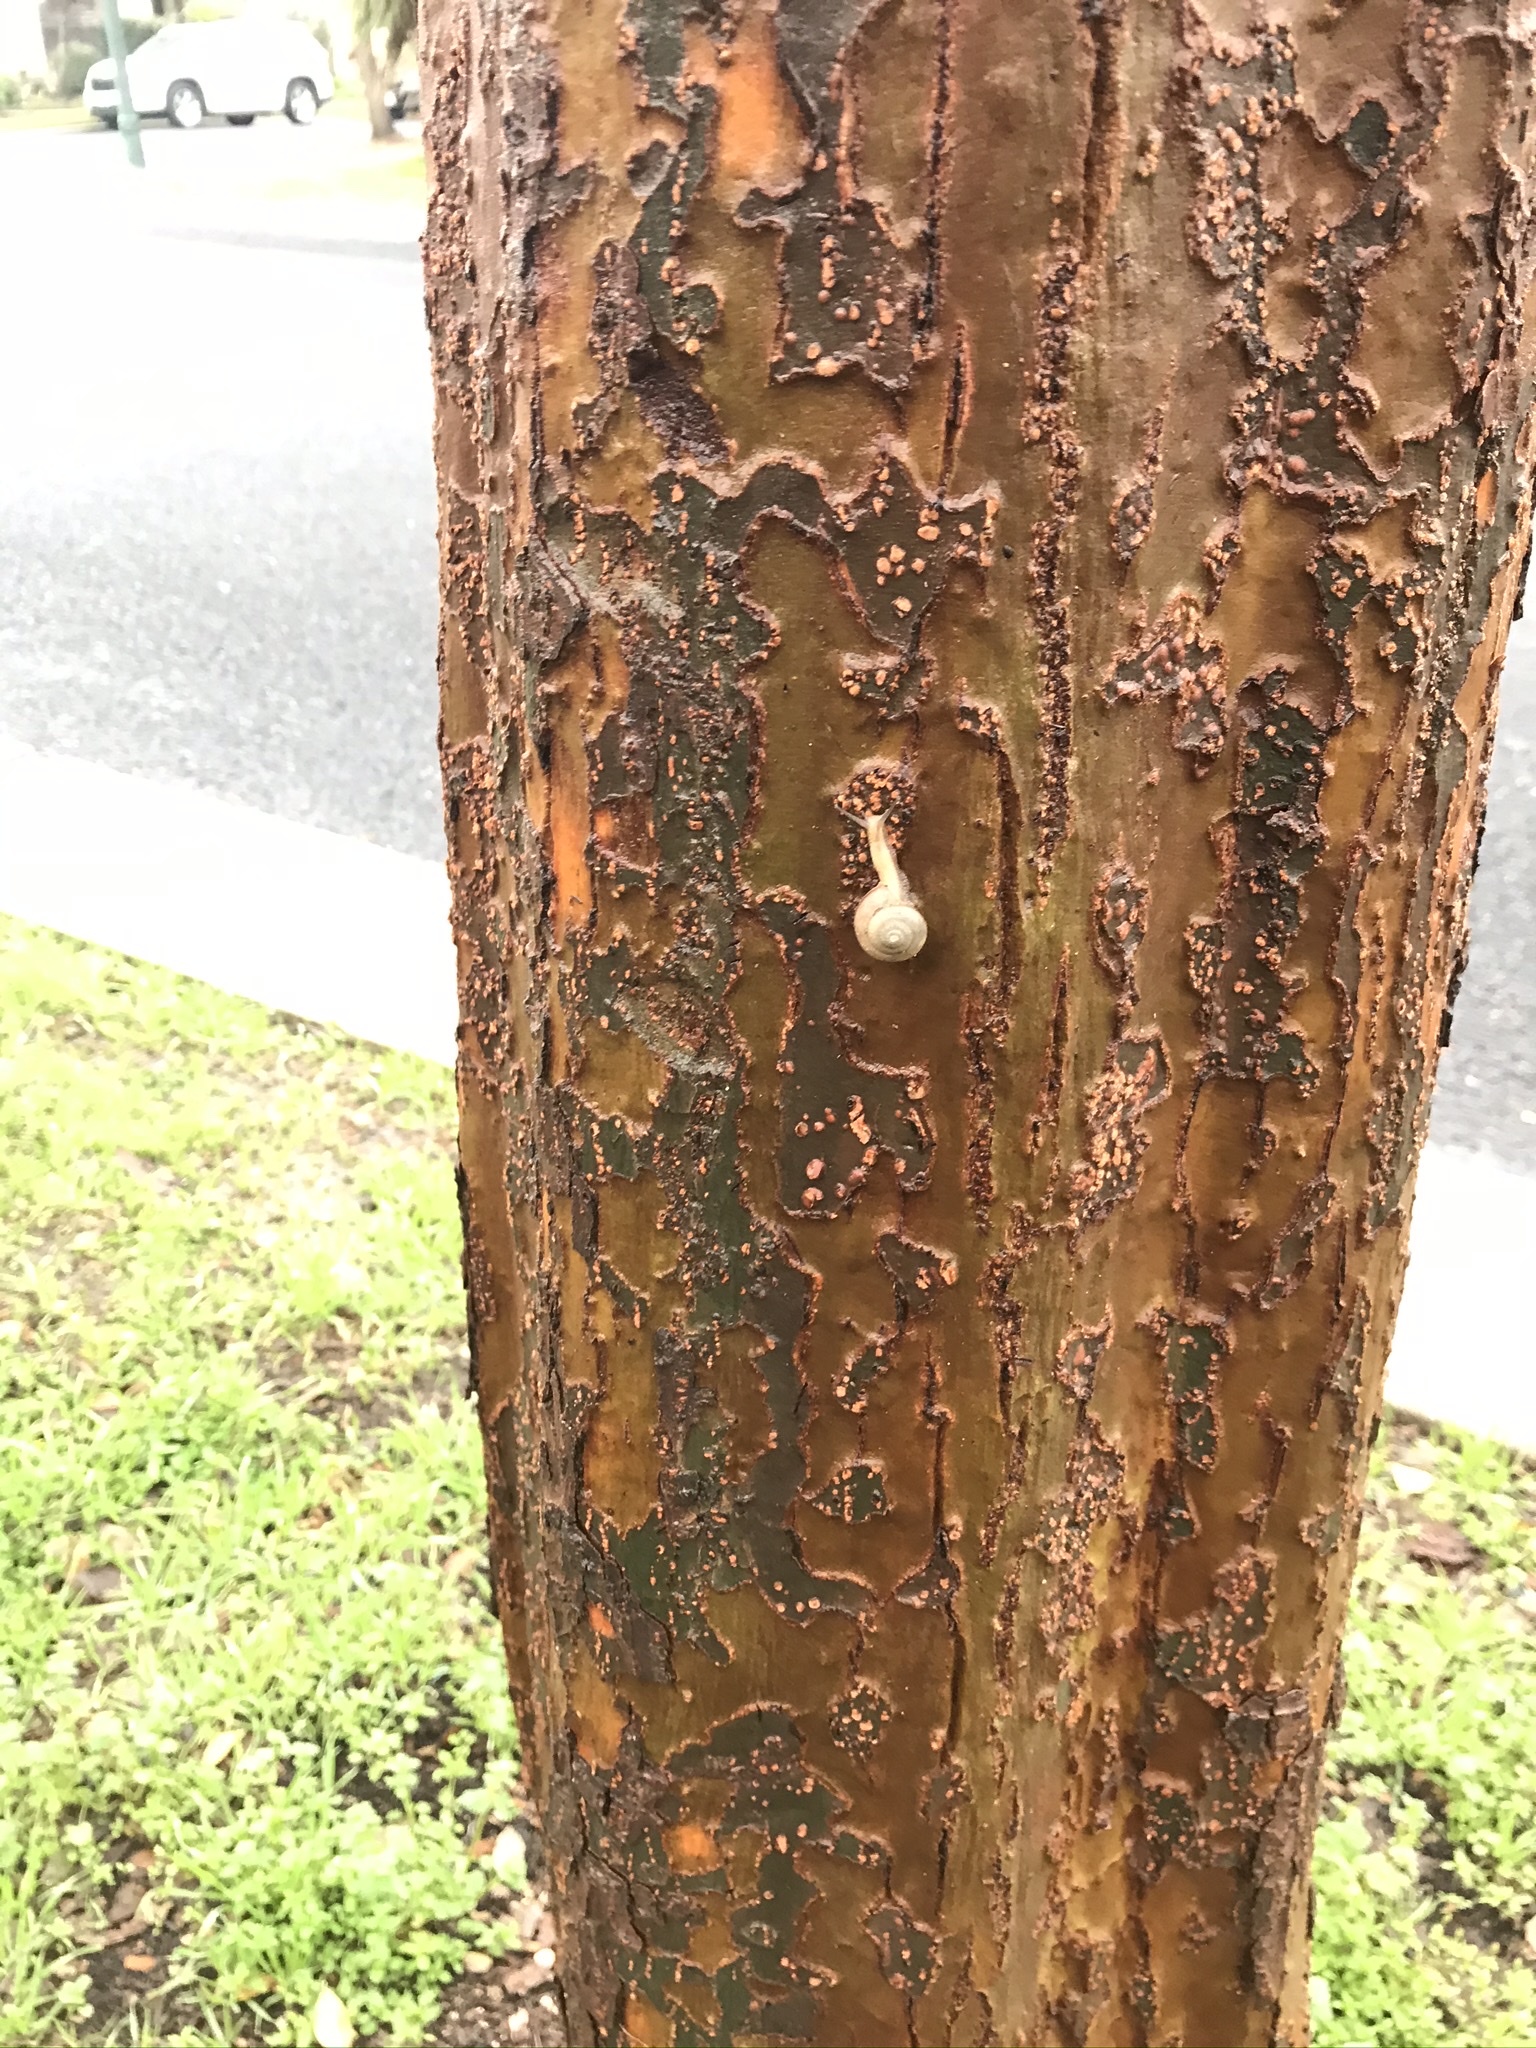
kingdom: Animalia
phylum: Mollusca
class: Gastropoda
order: Stylommatophora
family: Camaenidae
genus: Bradybaena
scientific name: Bradybaena similaris
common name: Asian trampsnail
